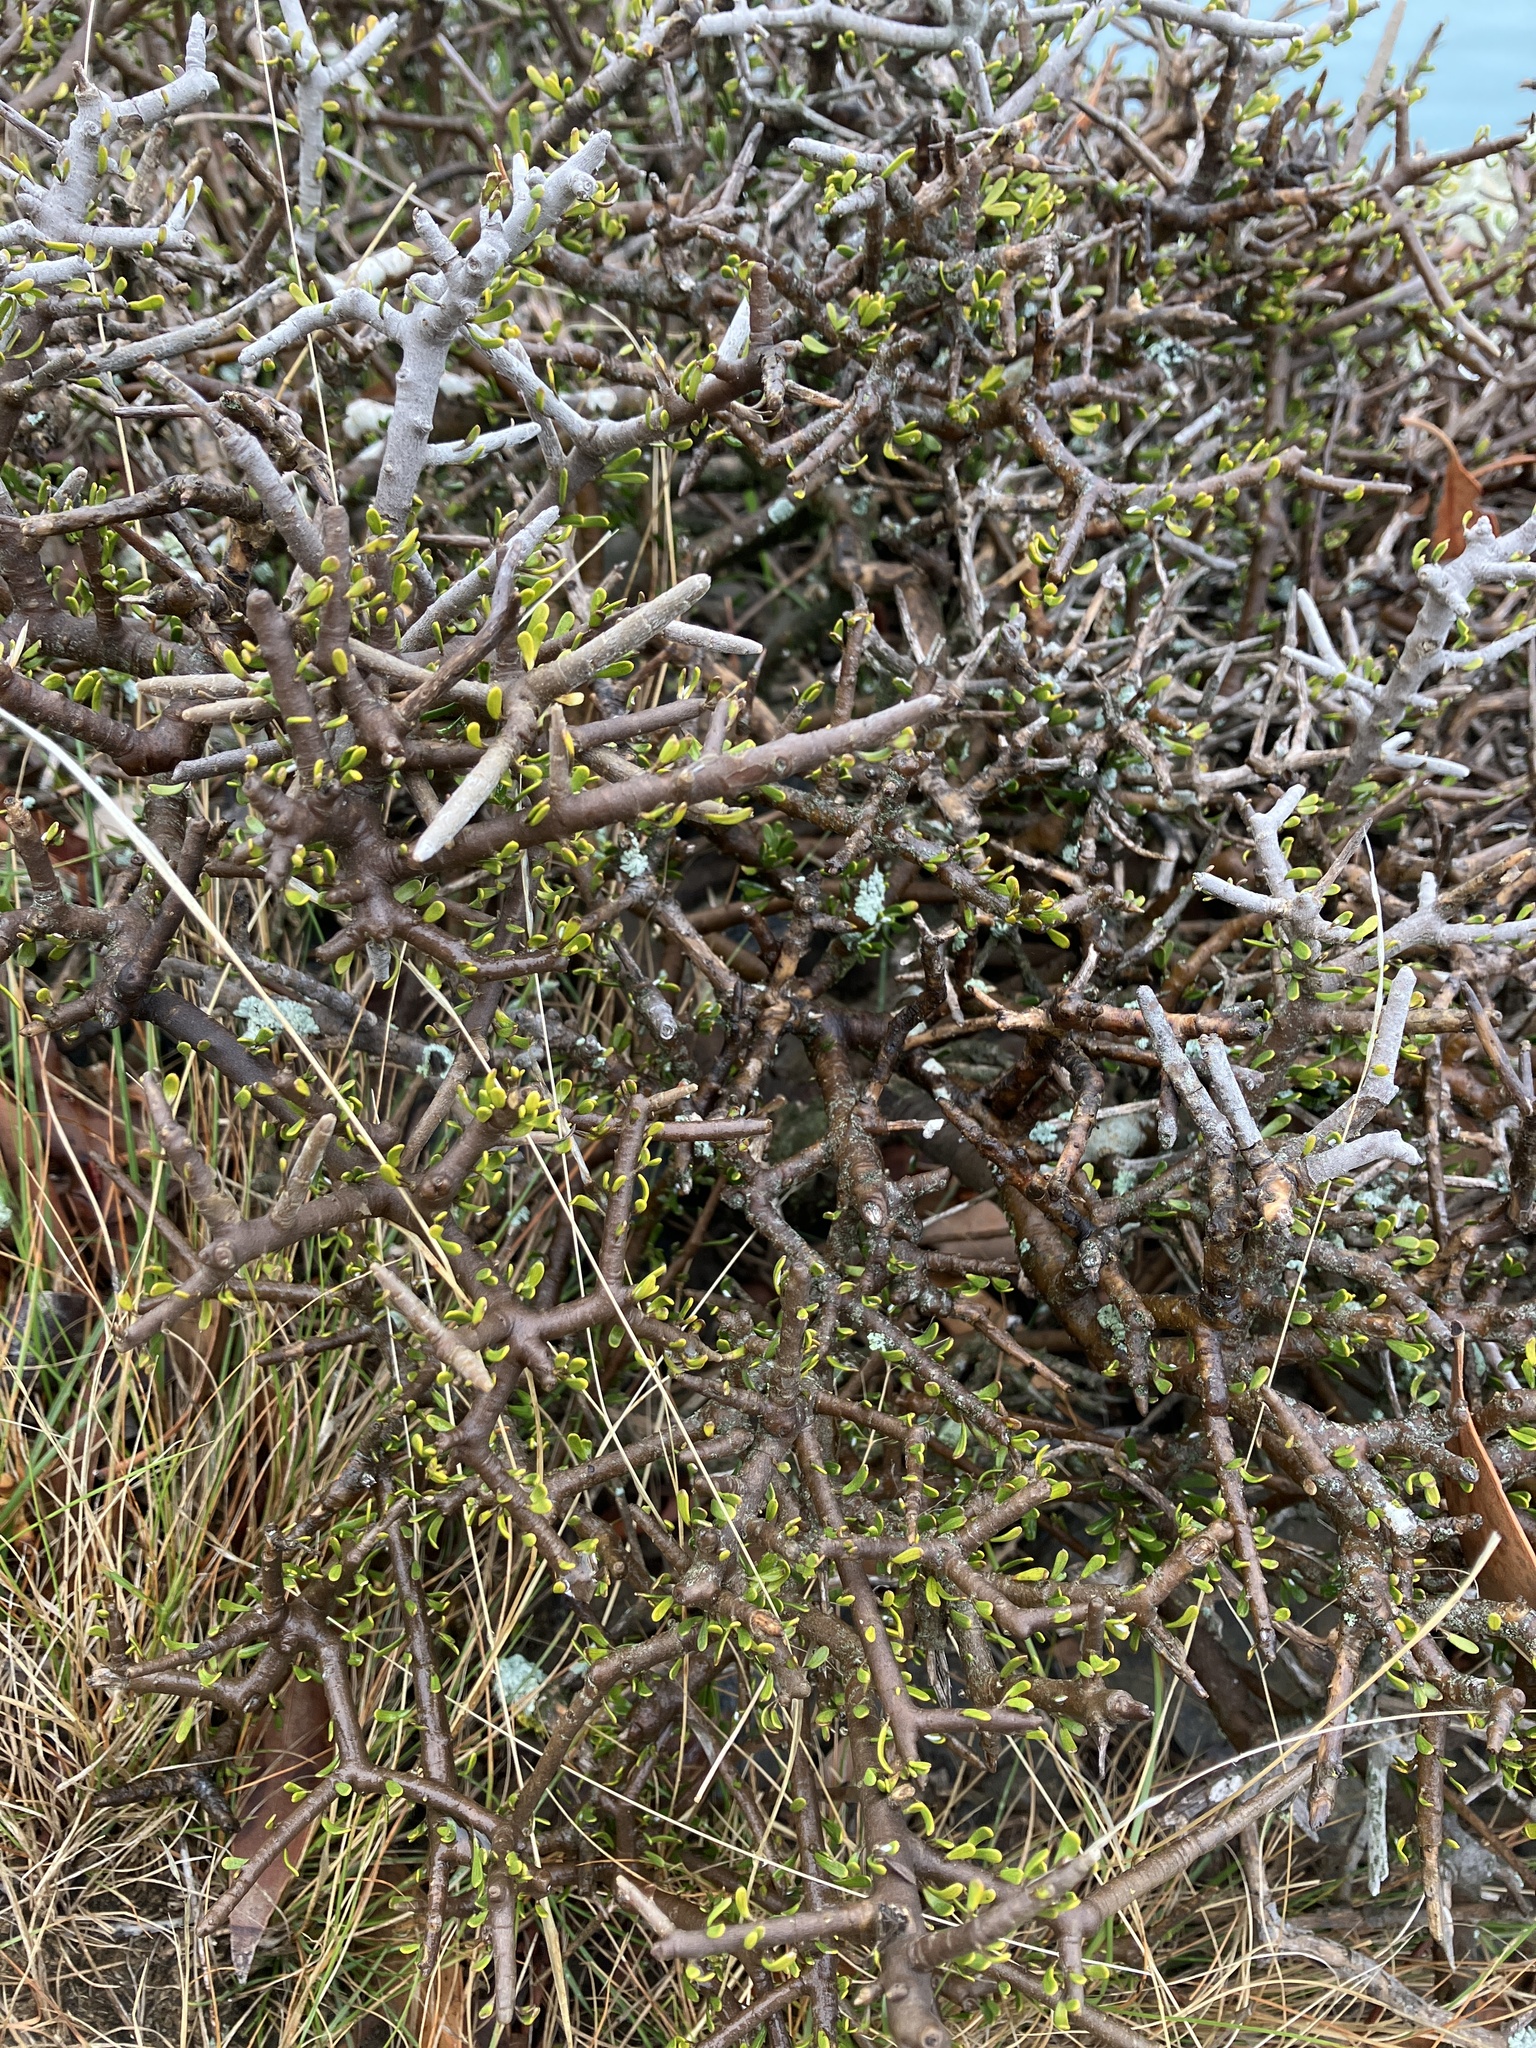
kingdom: Plantae
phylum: Tracheophyta
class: Magnoliopsida
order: Malpighiales
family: Violaceae
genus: Melicytus
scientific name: Melicytus alpinus
